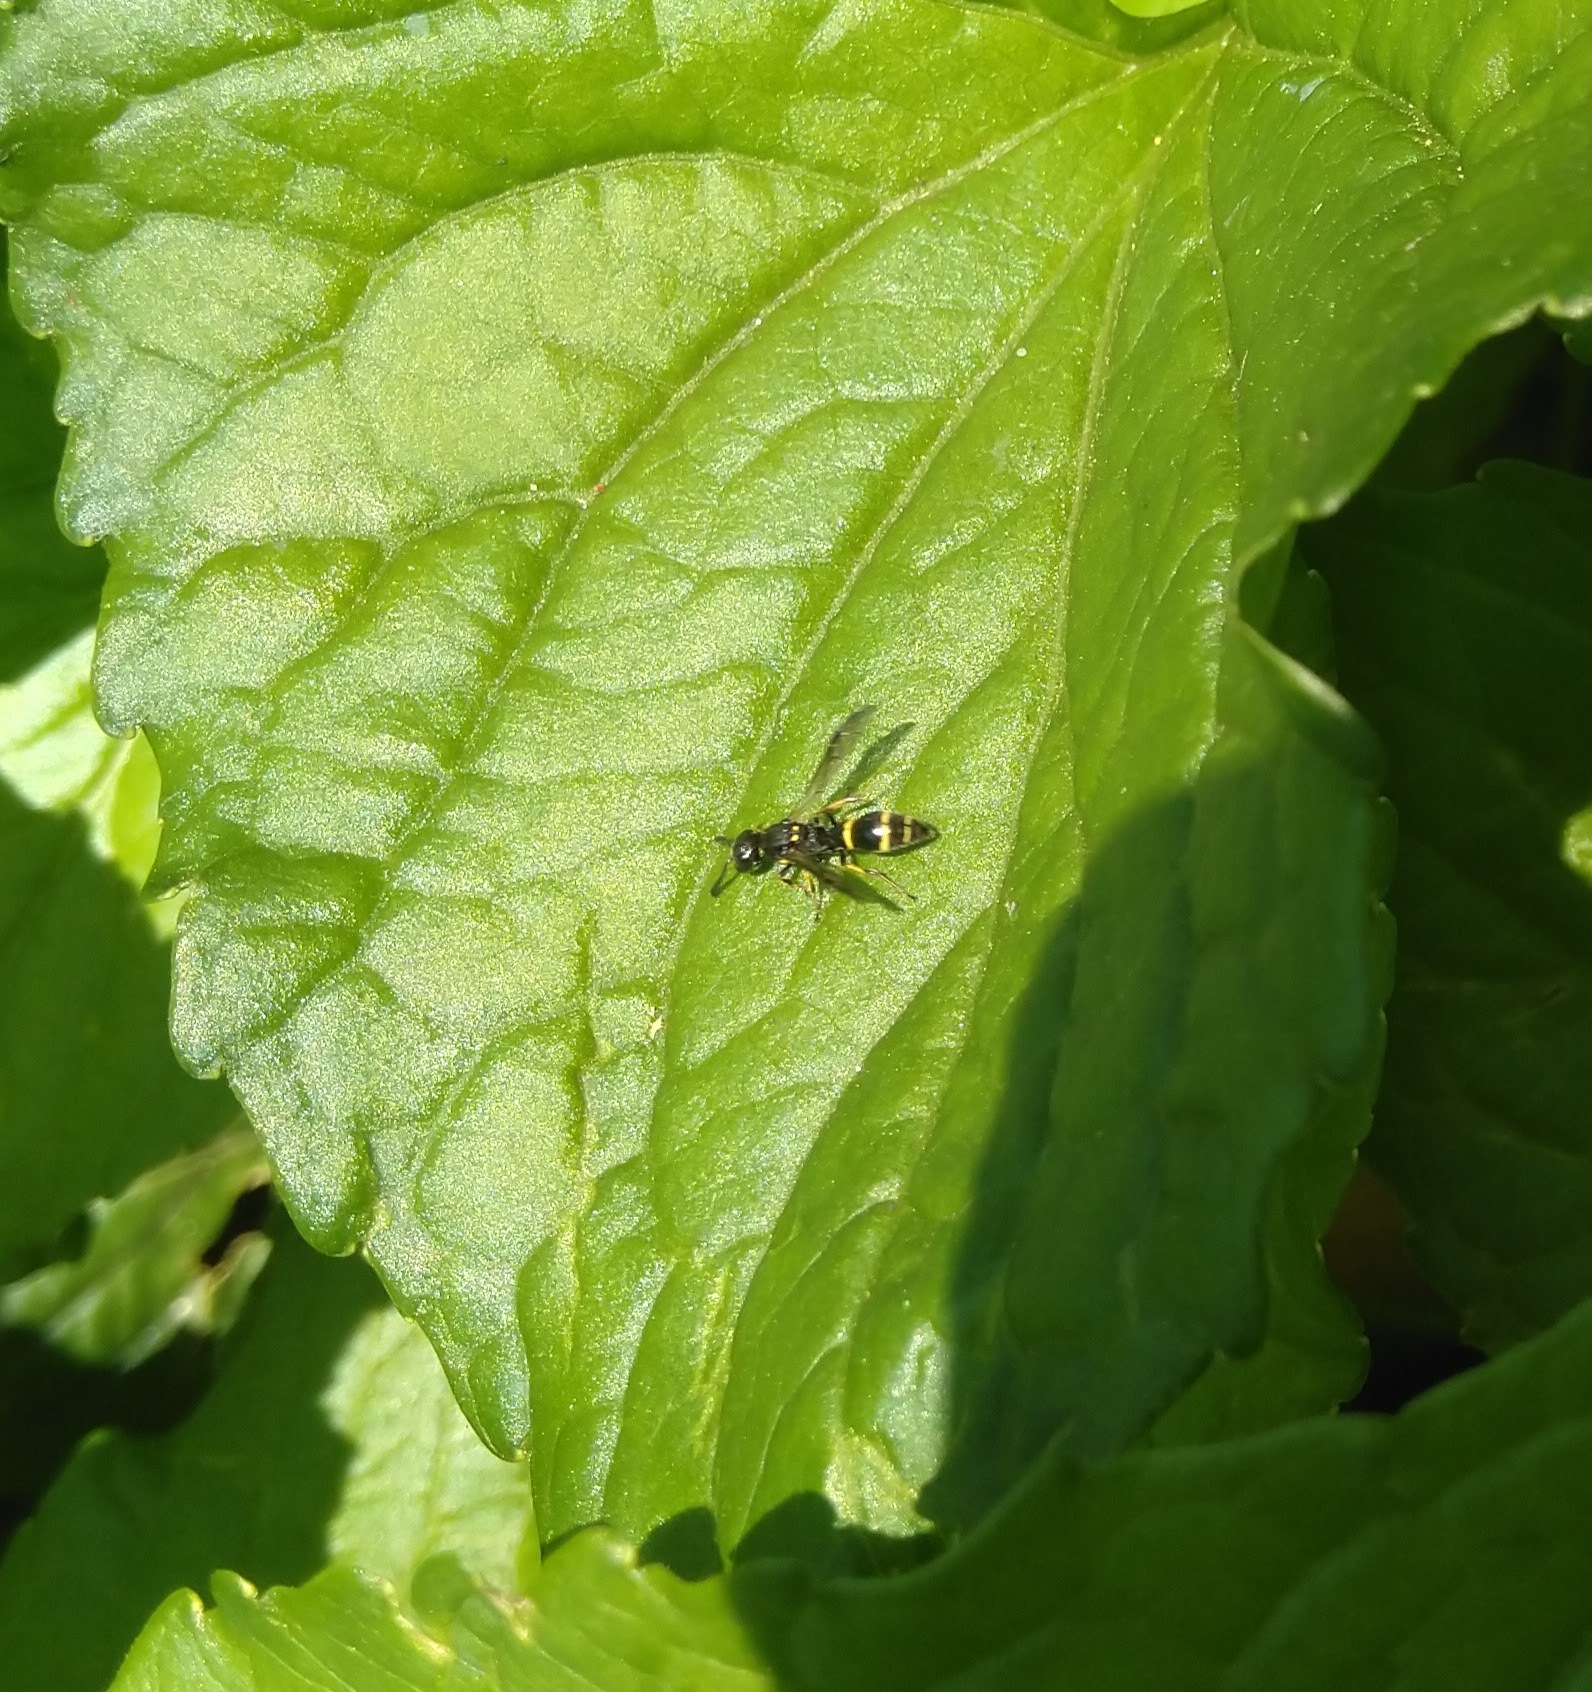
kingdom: Animalia
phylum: Arthropoda
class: Insecta
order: Hymenoptera
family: Eumenidae
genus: Symmorphus
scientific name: Symmorphus
